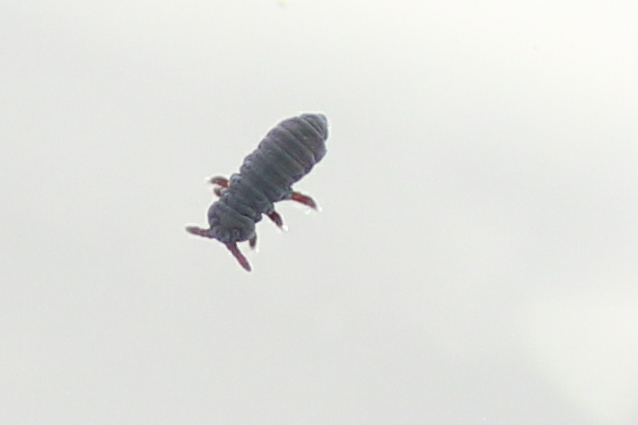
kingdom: Animalia
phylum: Arthropoda
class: Collembola
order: Poduromorpha
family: Poduridae
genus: Podura
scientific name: Podura aquatica
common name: Water springtail
